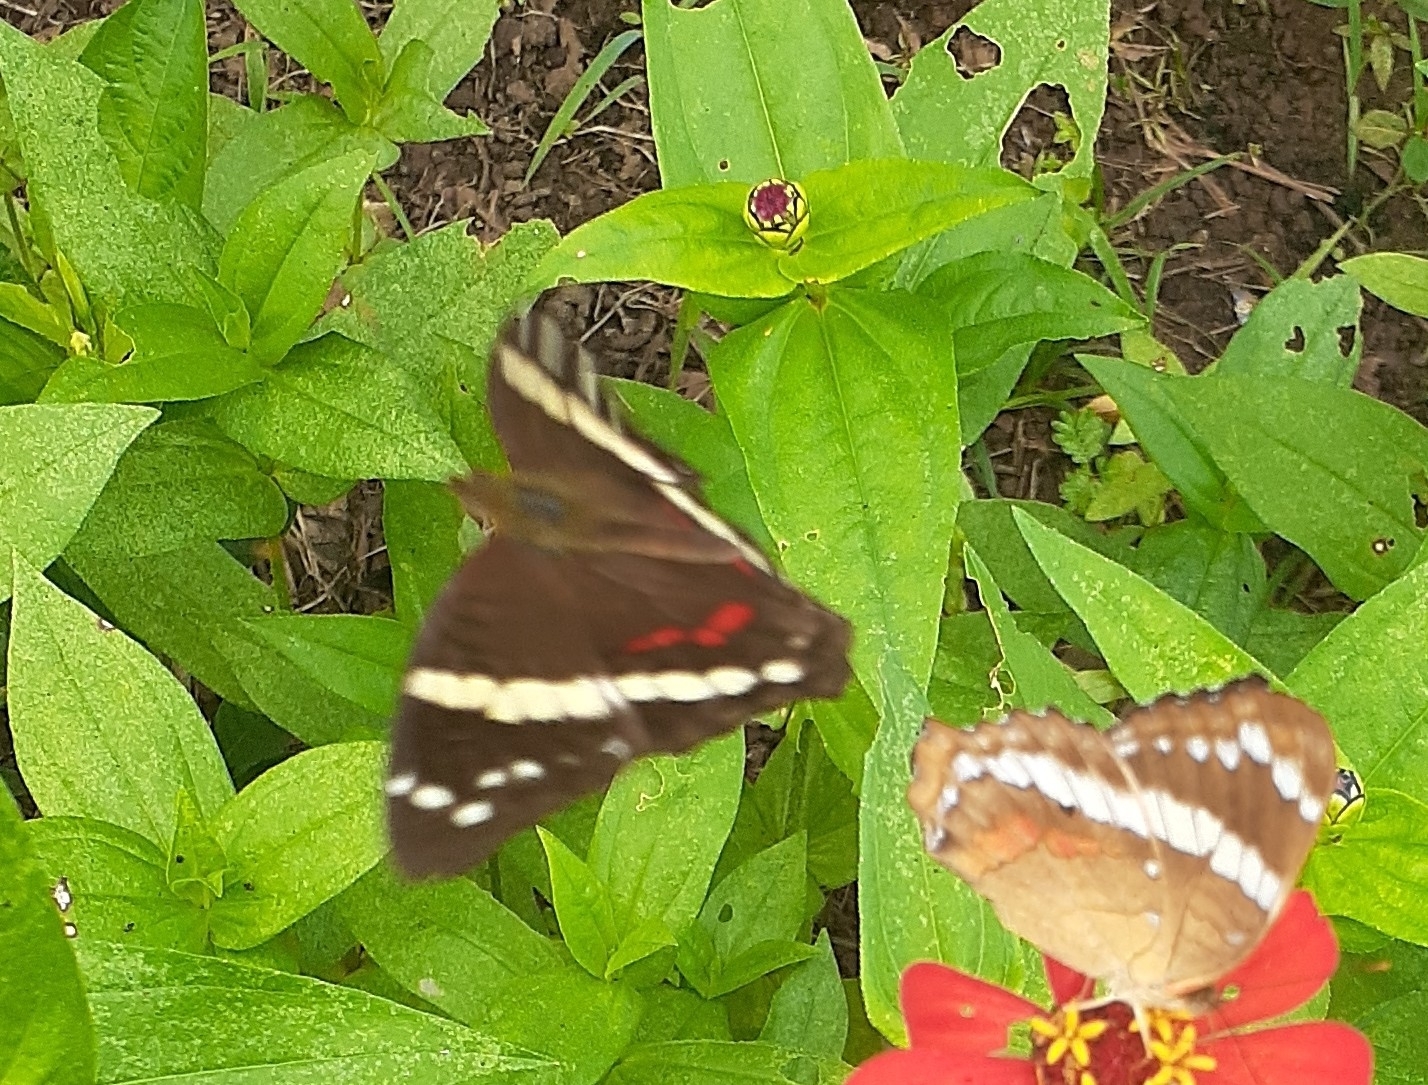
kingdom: Animalia
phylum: Arthropoda
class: Insecta
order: Lepidoptera
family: Nymphalidae
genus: Anartia
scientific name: Anartia fatima
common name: Banded peacock
